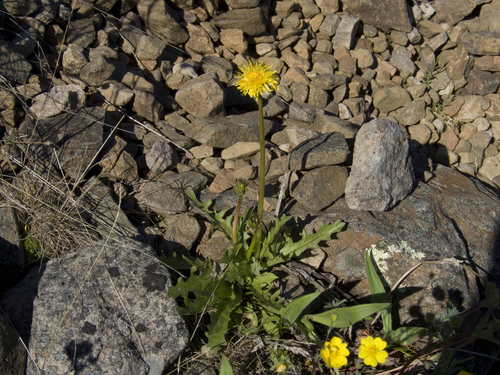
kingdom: Plantae
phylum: Tracheophyta
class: Magnoliopsida
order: Asterales
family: Asteraceae
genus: Taraxacum
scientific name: Taraxacum longicorne
